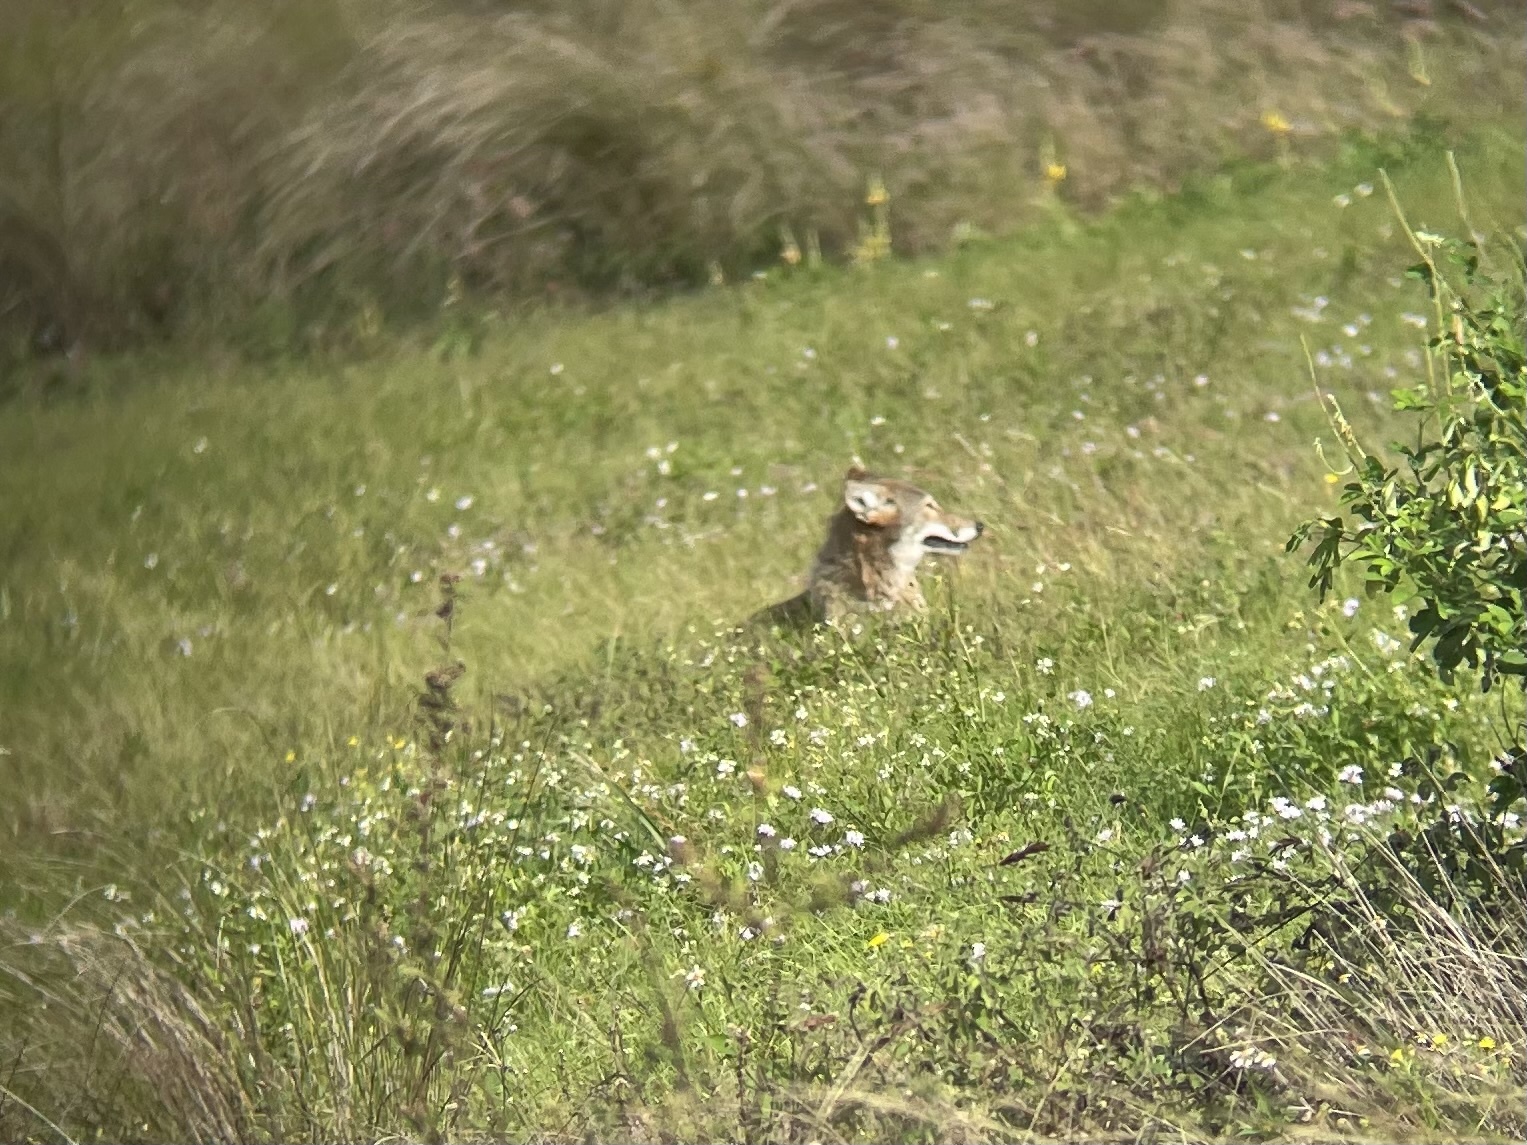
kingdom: Animalia
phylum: Chordata
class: Mammalia
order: Carnivora
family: Canidae
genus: Canis
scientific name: Canis latrans
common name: Coyote
